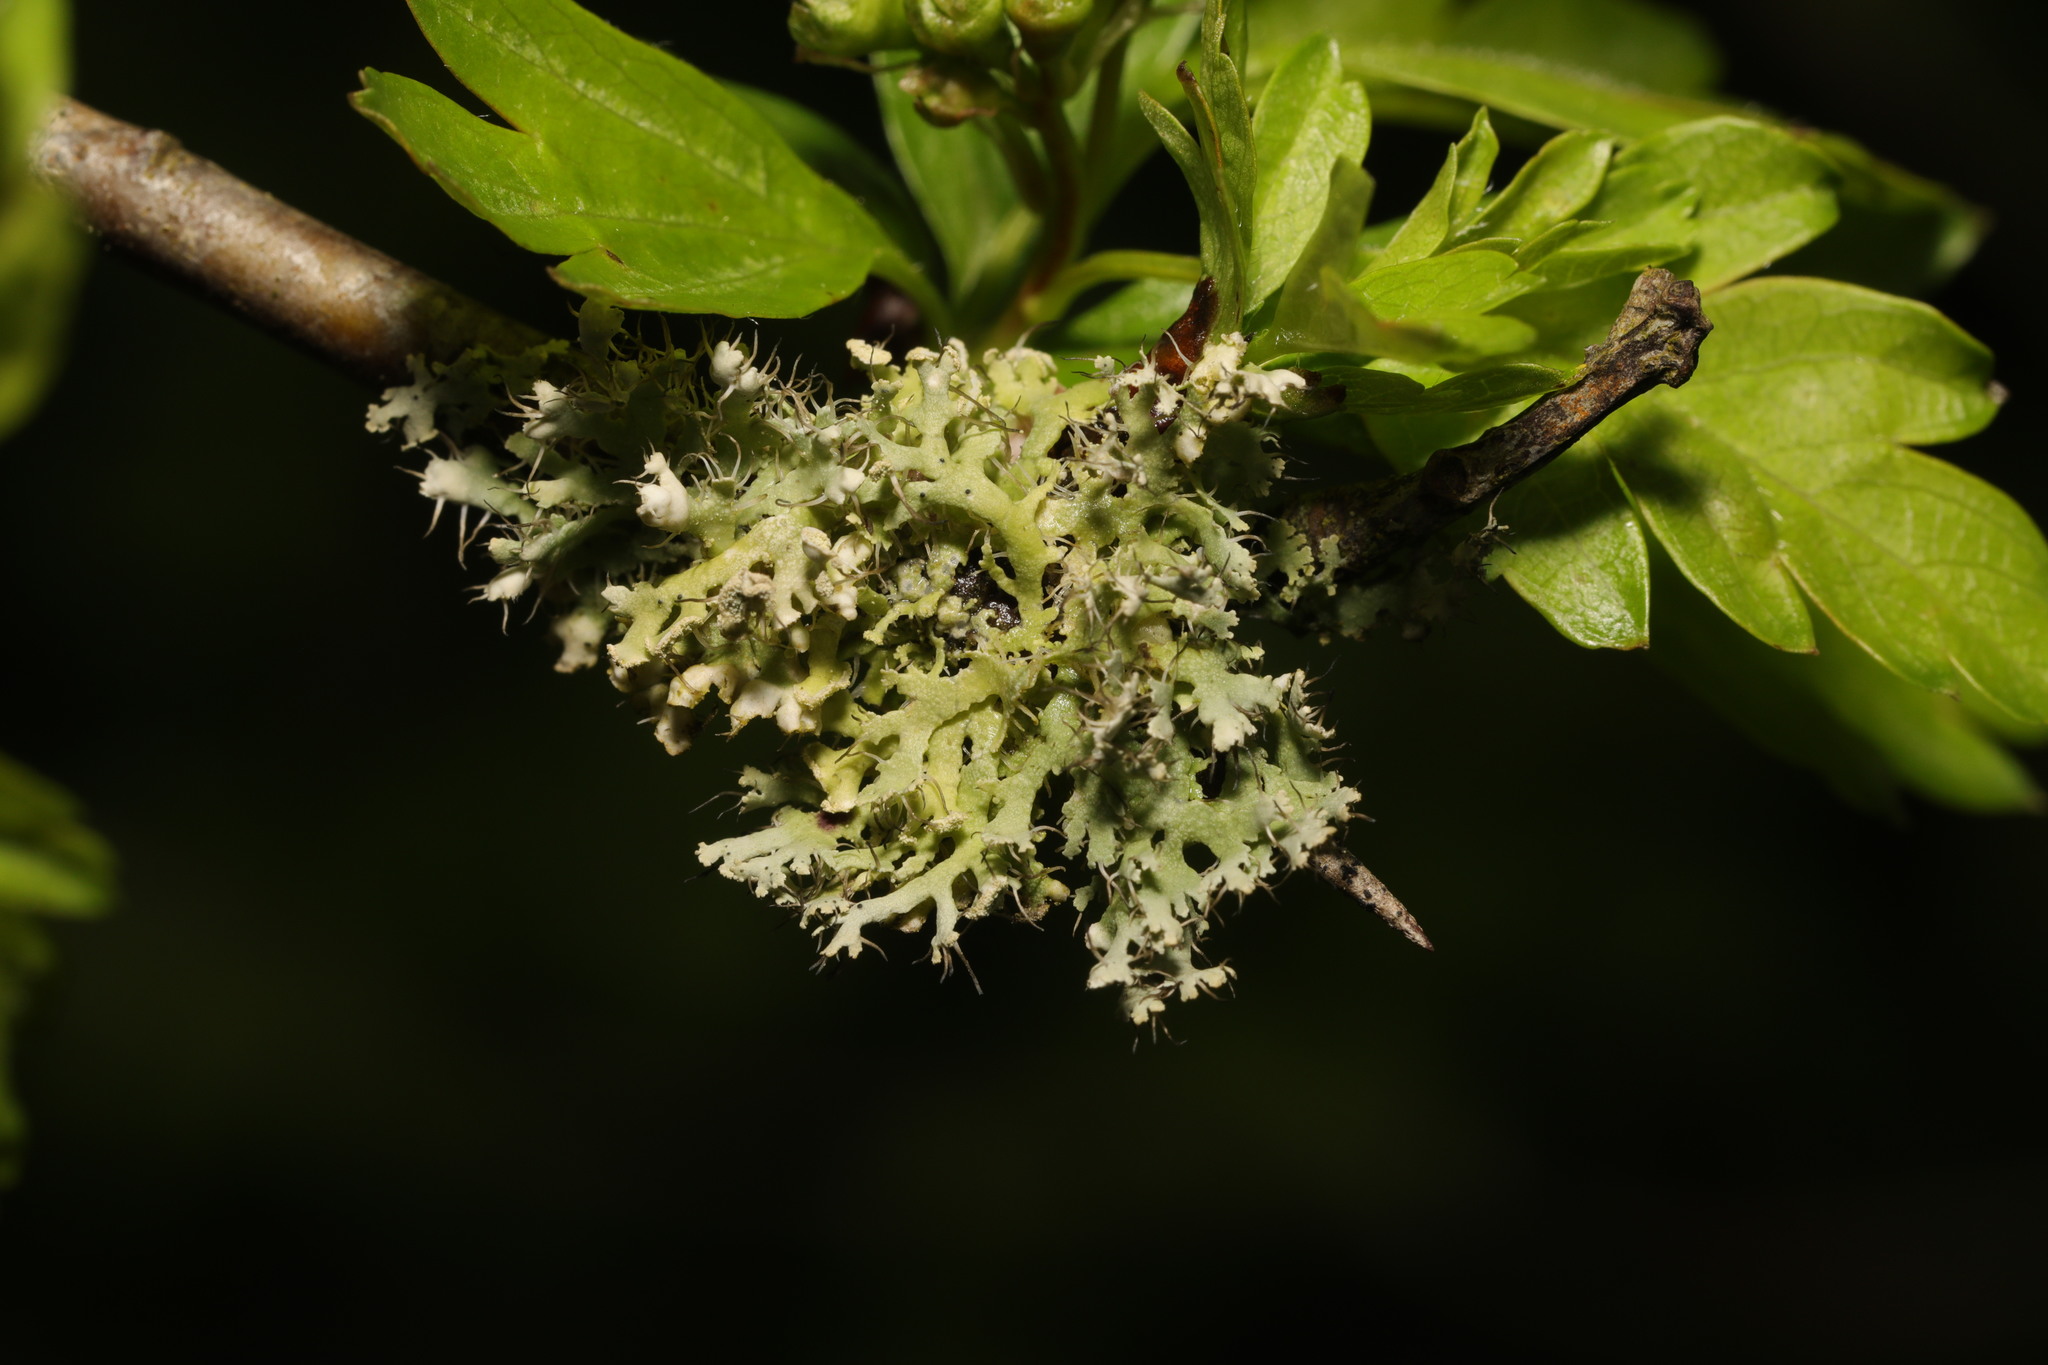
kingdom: Fungi
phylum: Ascomycota
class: Lecanoromycetes
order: Caliciales
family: Physciaceae
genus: Physcia
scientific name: Physcia adscendens
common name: Hooded rosette lichen
